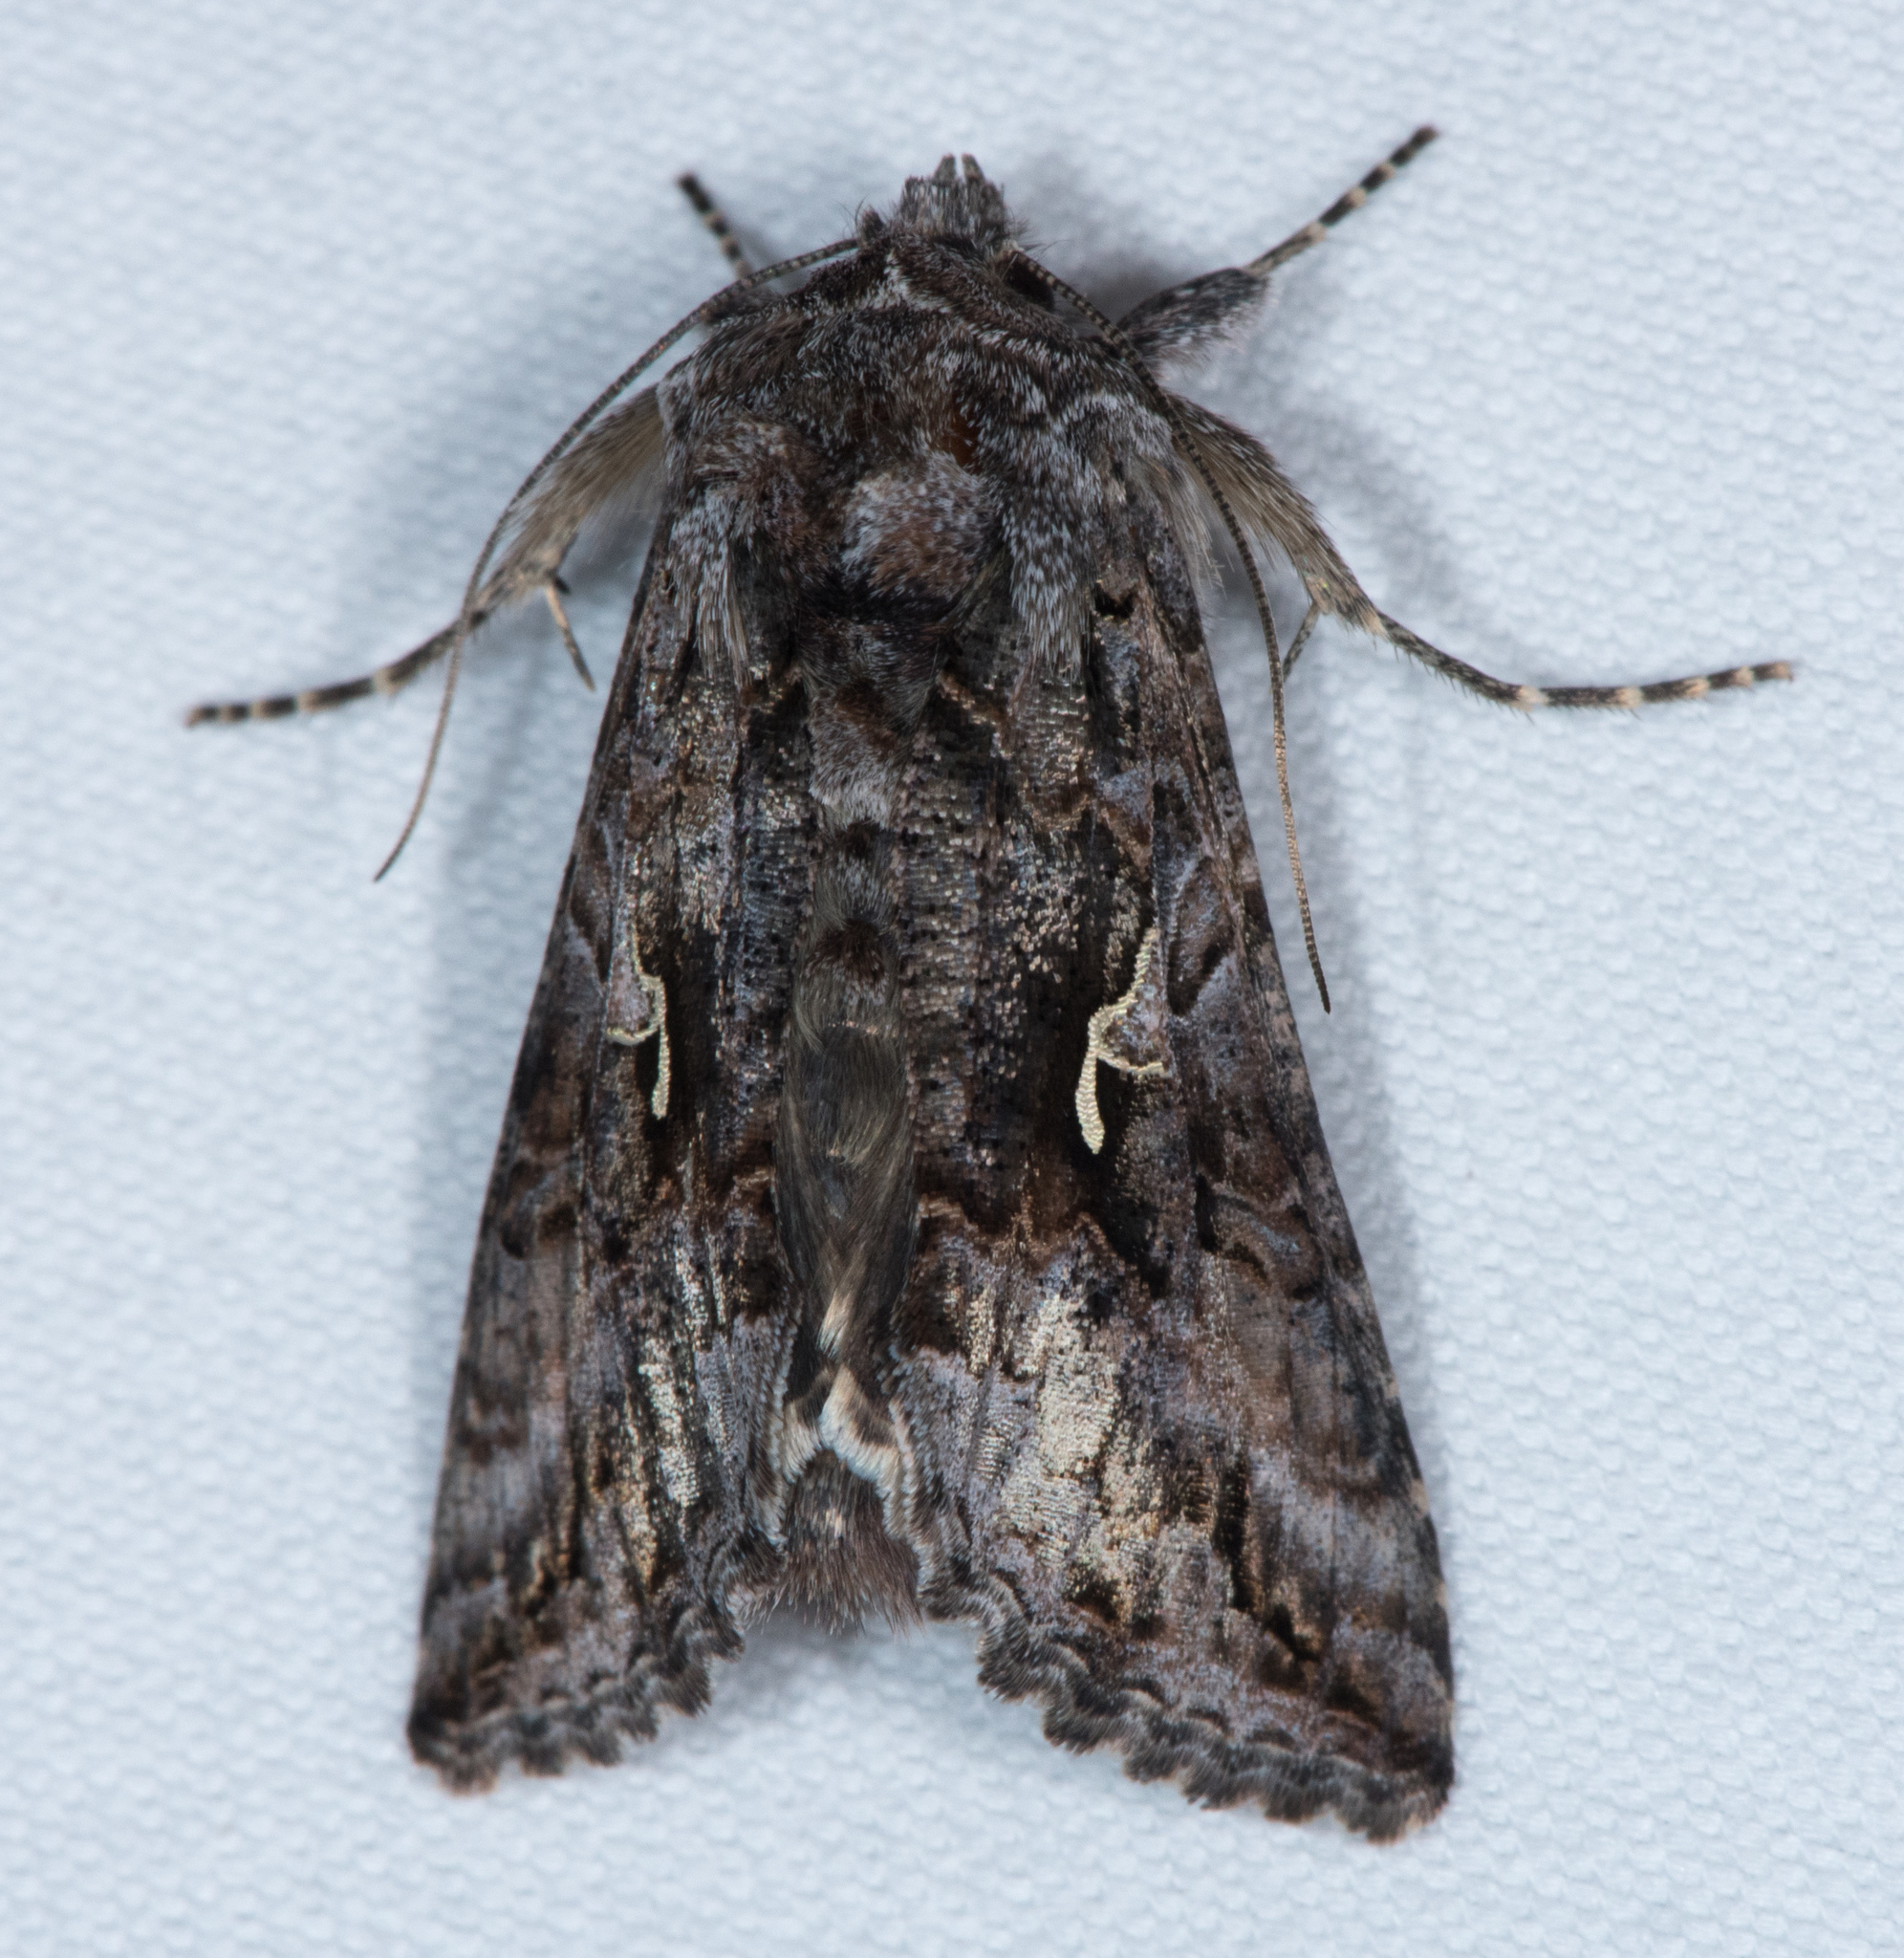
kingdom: Animalia
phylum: Arthropoda
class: Insecta
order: Lepidoptera
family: Noctuidae
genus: Autographa
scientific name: Autographa californica
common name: Alfalfa looper
